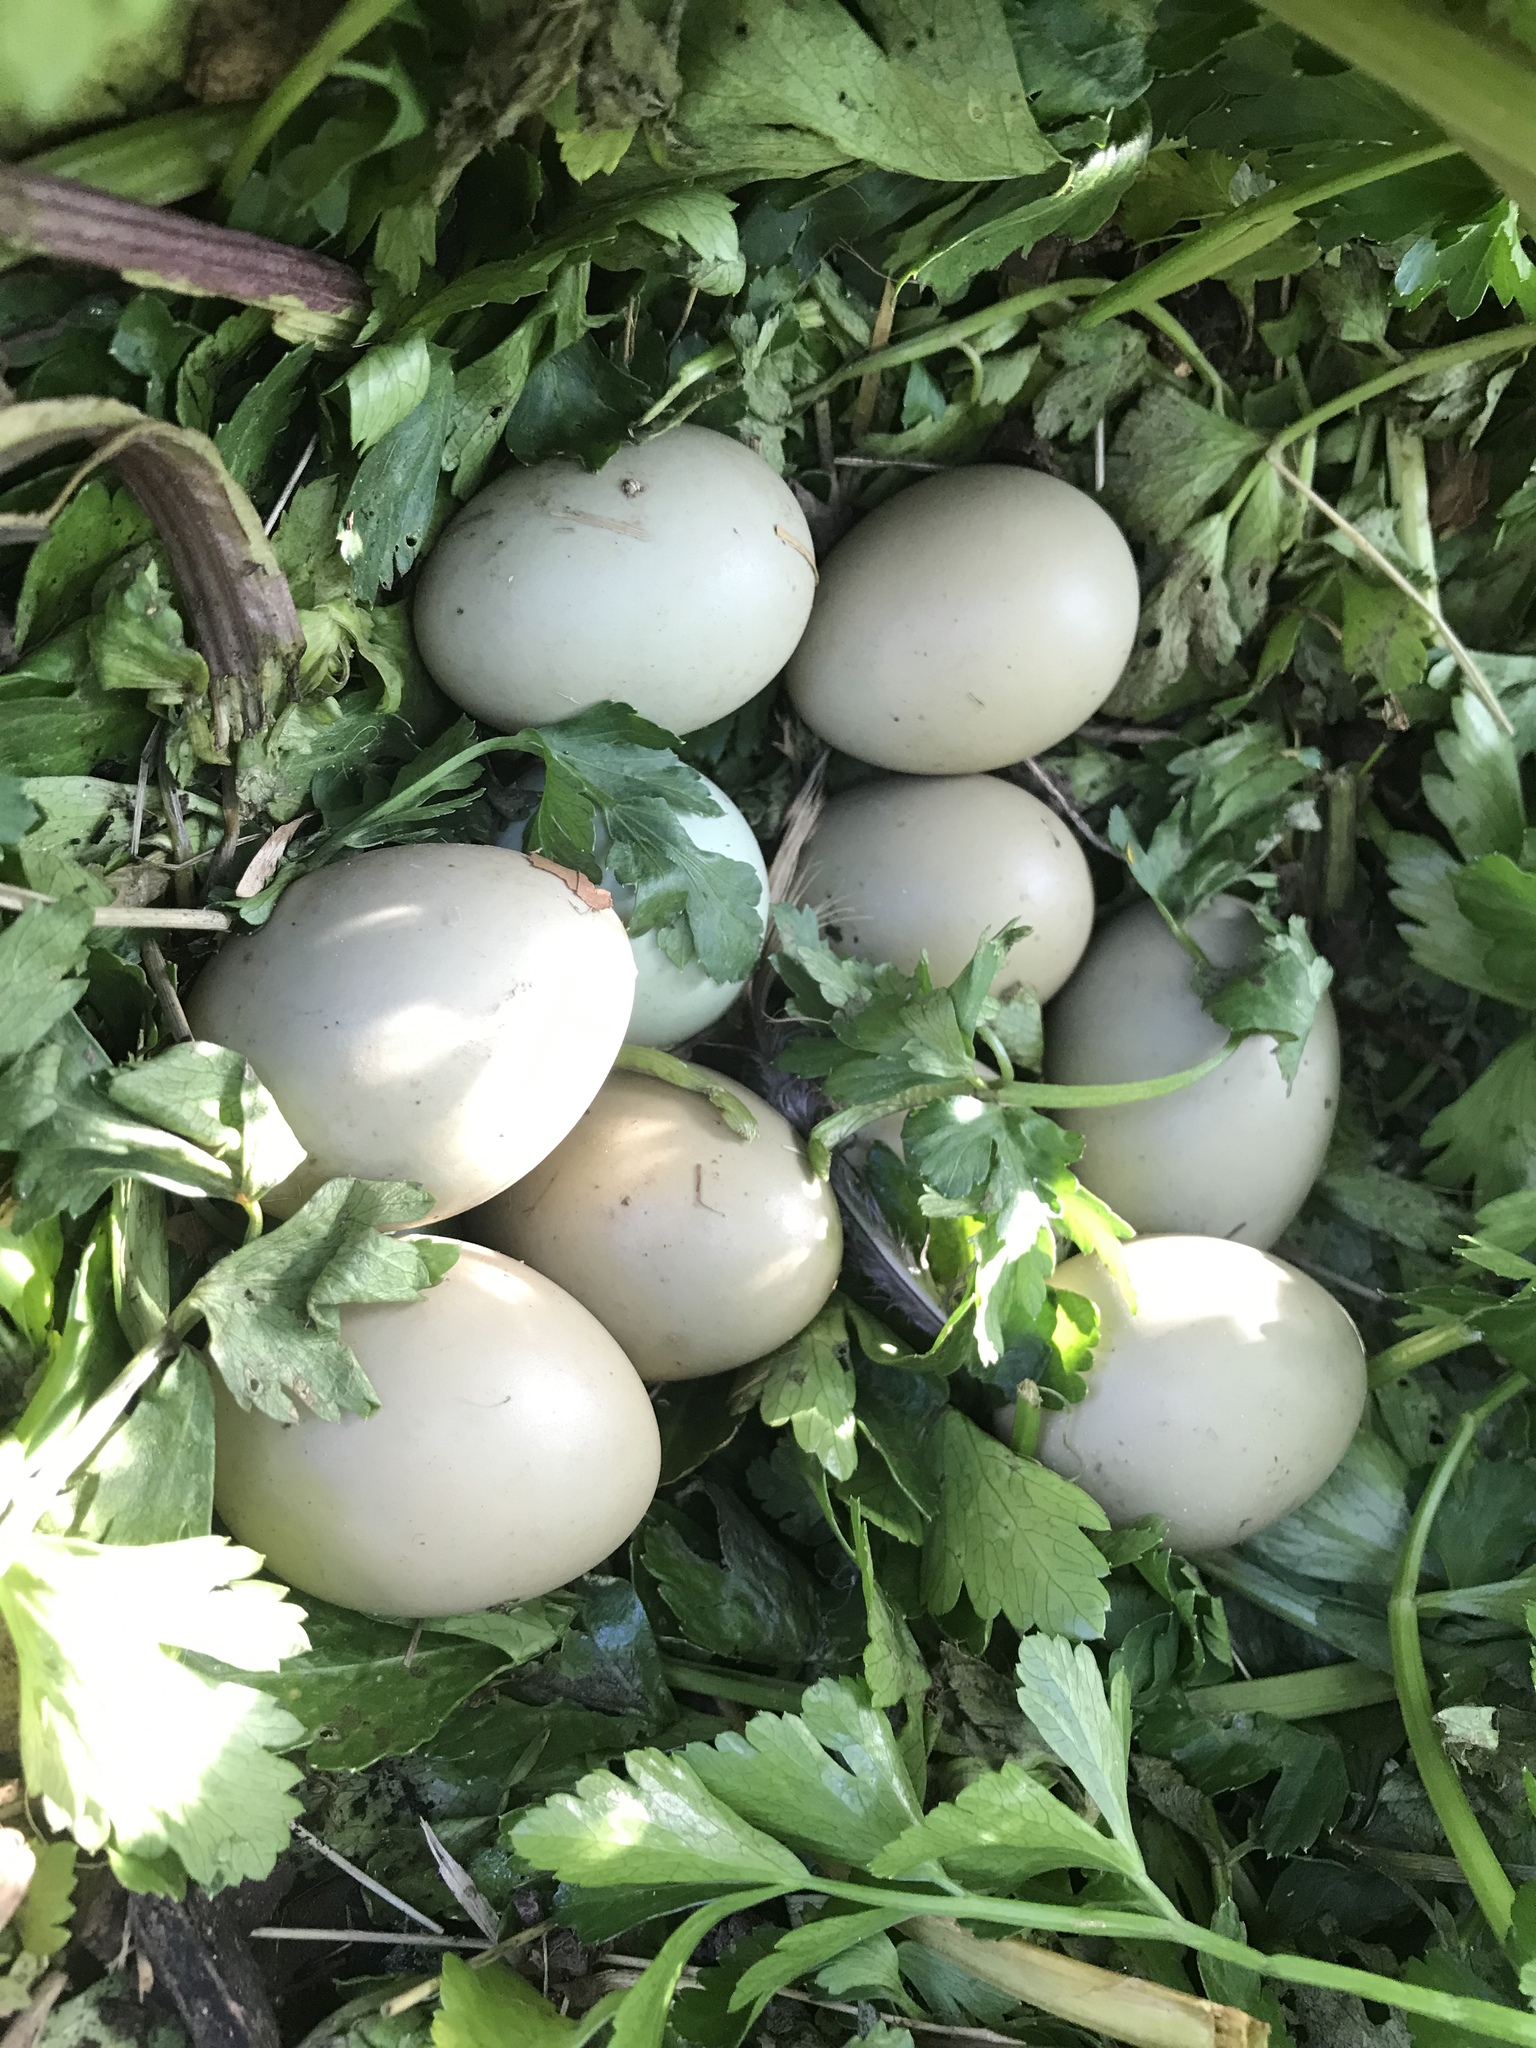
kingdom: Animalia
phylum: Chordata
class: Aves
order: Galliformes
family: Phasianidae
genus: Phasianus
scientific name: Phasianus colchicus
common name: Common pheasant
